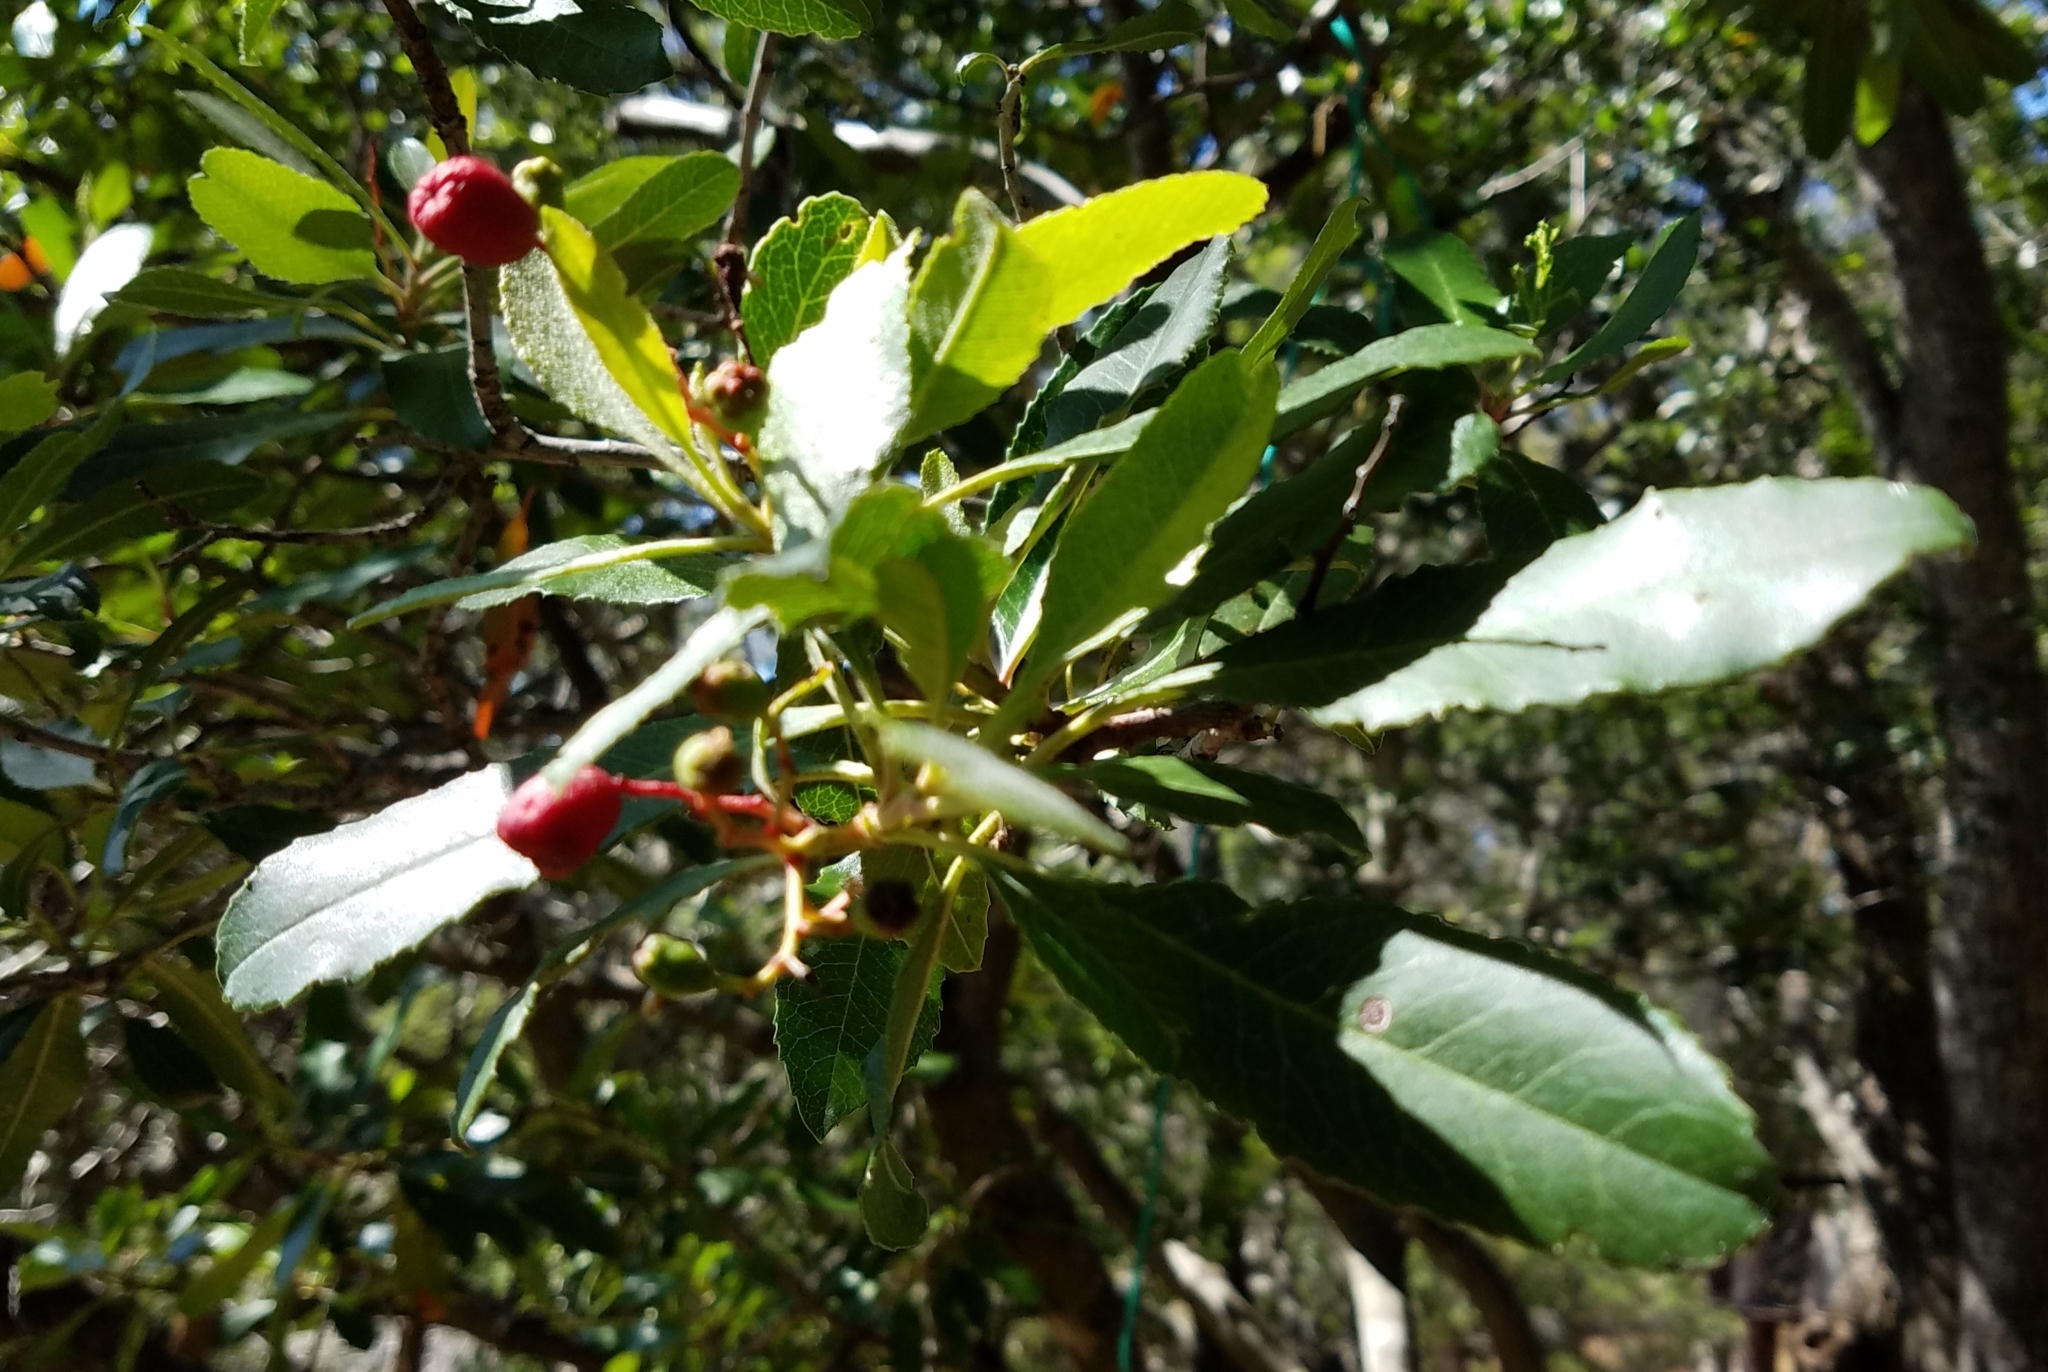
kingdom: Plantae
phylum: Tracheophyta
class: Magnoliopsida
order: Rosales
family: Rosaceae
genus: Heteromeles
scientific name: Heteromeles arbutifolia
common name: California-holly
